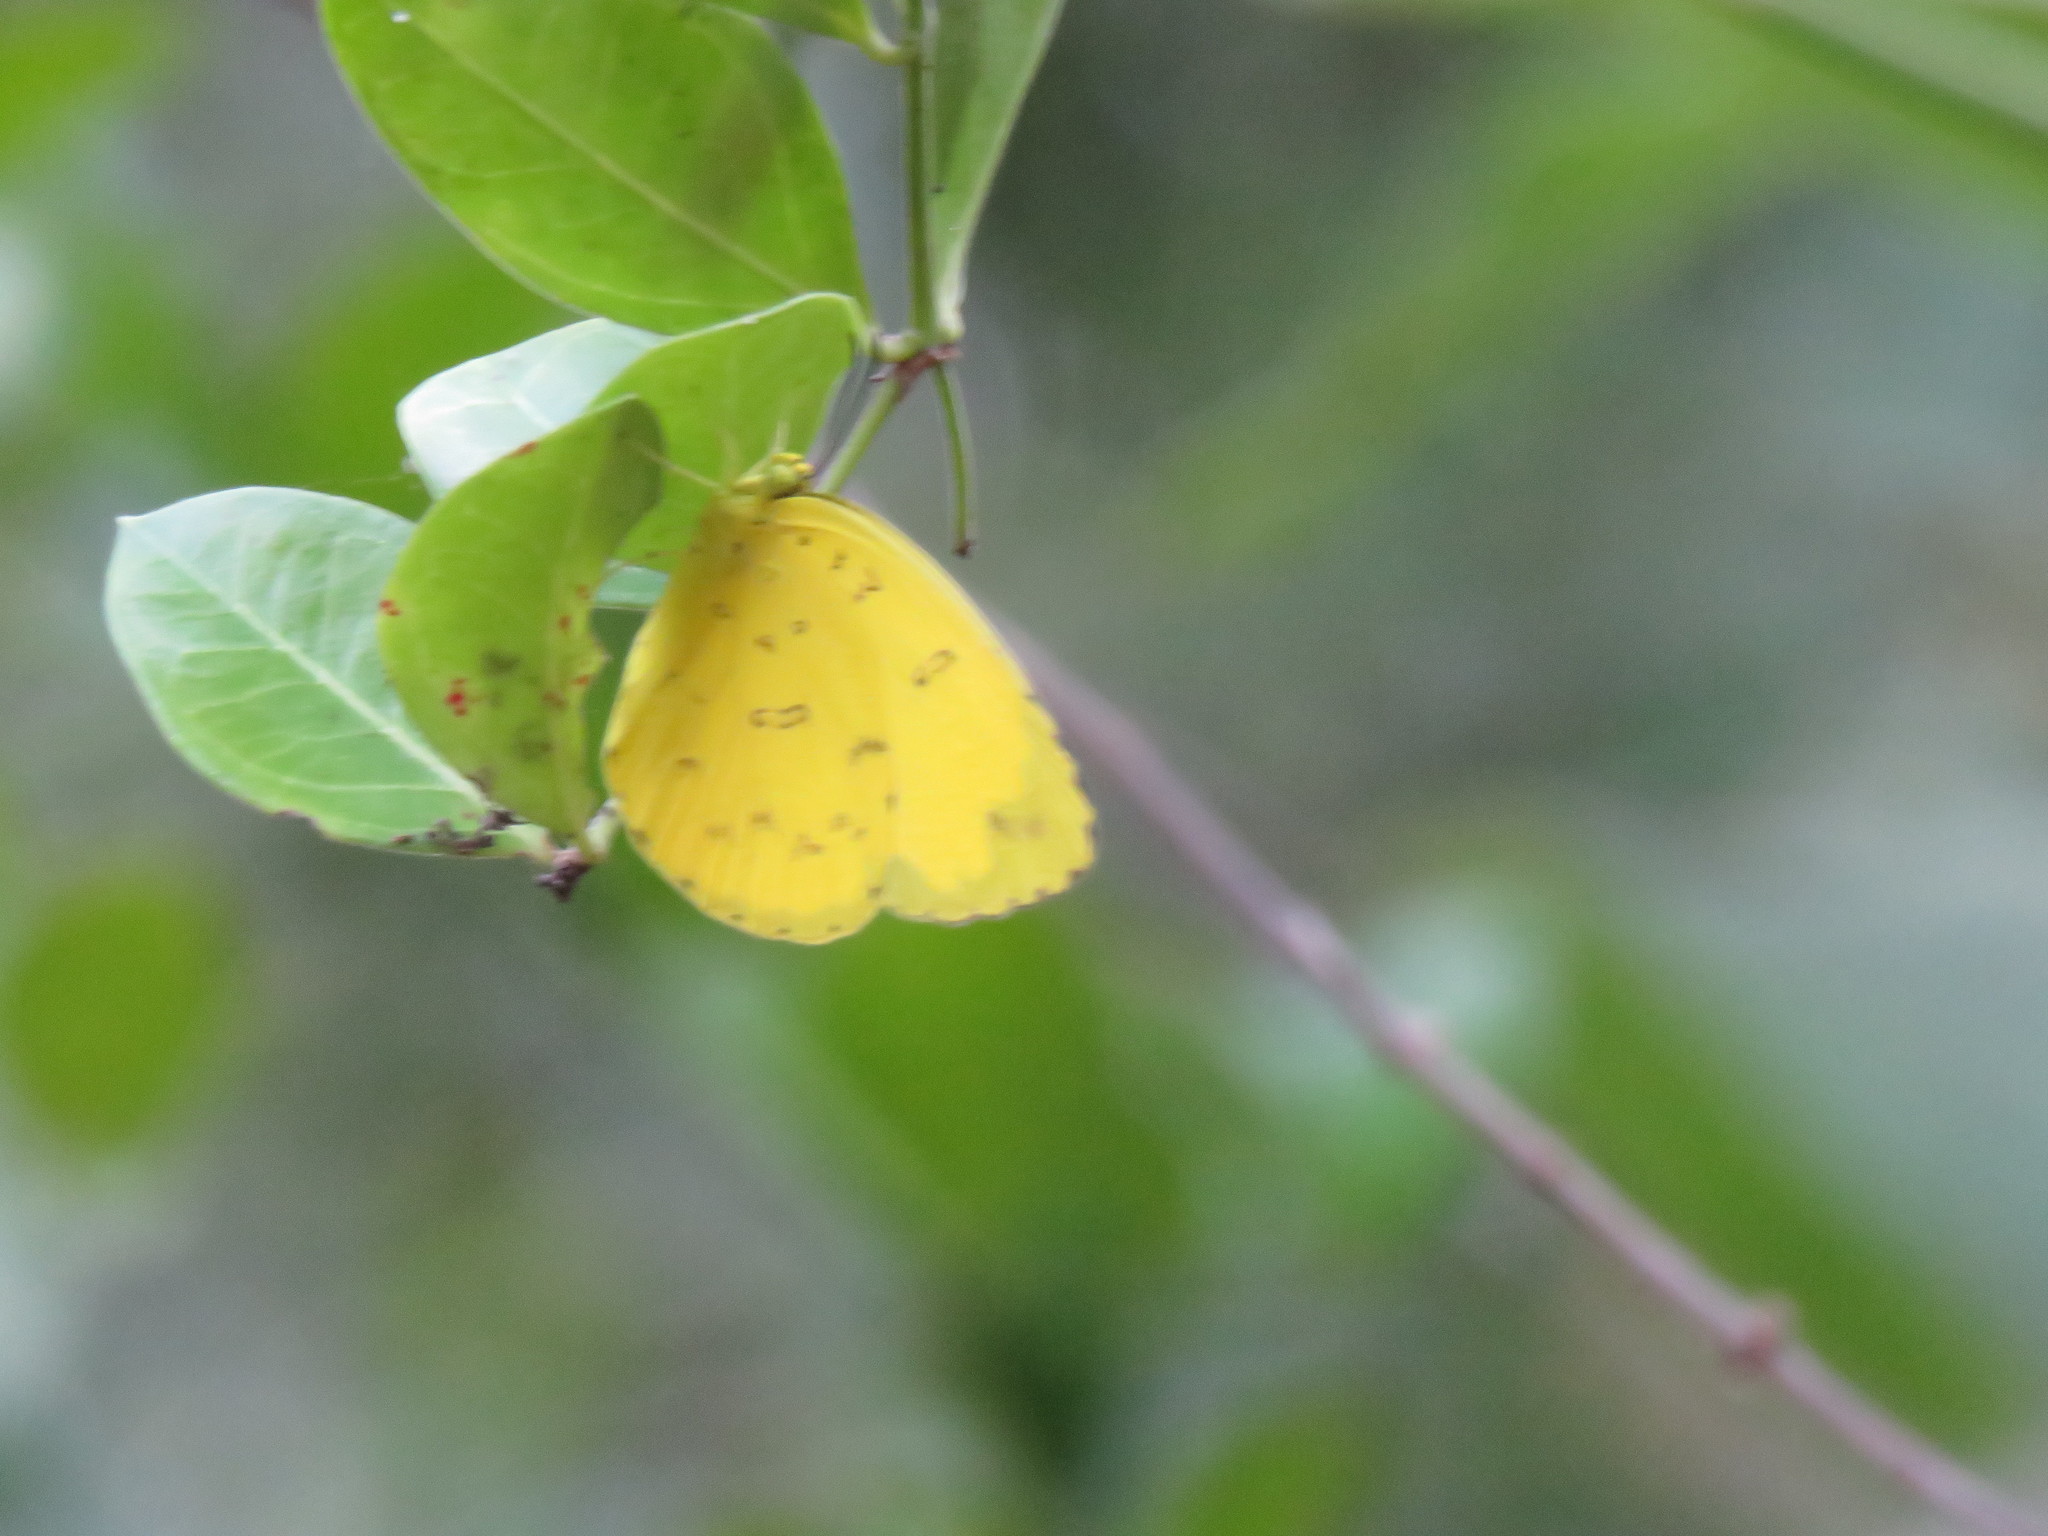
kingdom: Animalia
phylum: Arthropoda
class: Insecta
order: Lepidoptera
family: Pieridae
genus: Eurema
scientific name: Eurema blanda
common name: Three-spot grass yellow
